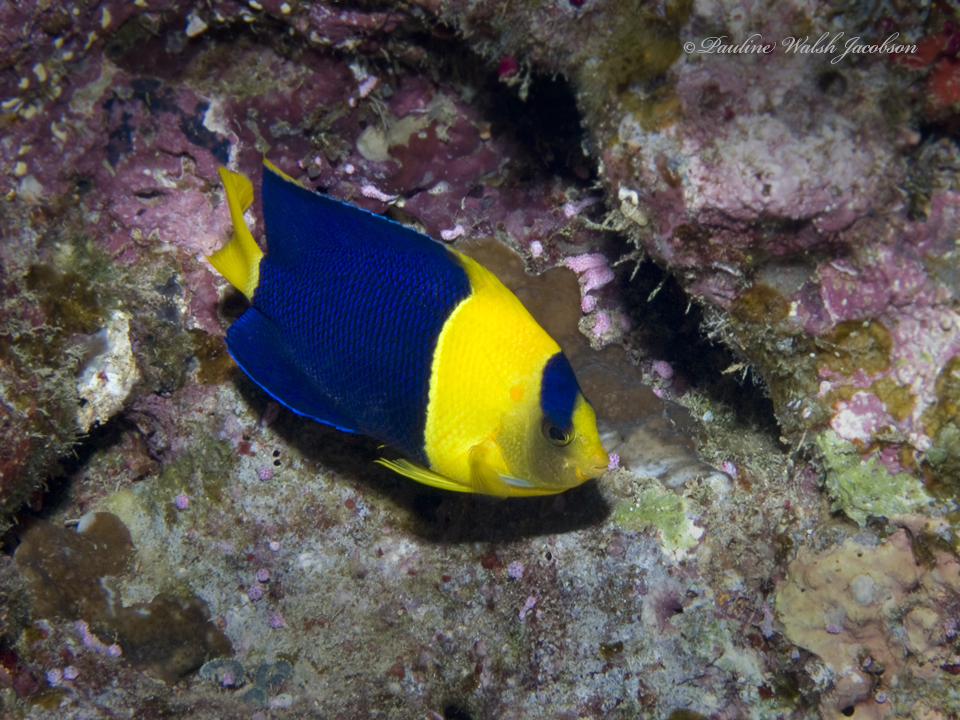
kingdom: Animalia
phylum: Chordata
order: Perciformes
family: Pomacanthidae
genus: Centropyge
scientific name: Centropyge bicolor
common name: Bicolor angelfish
